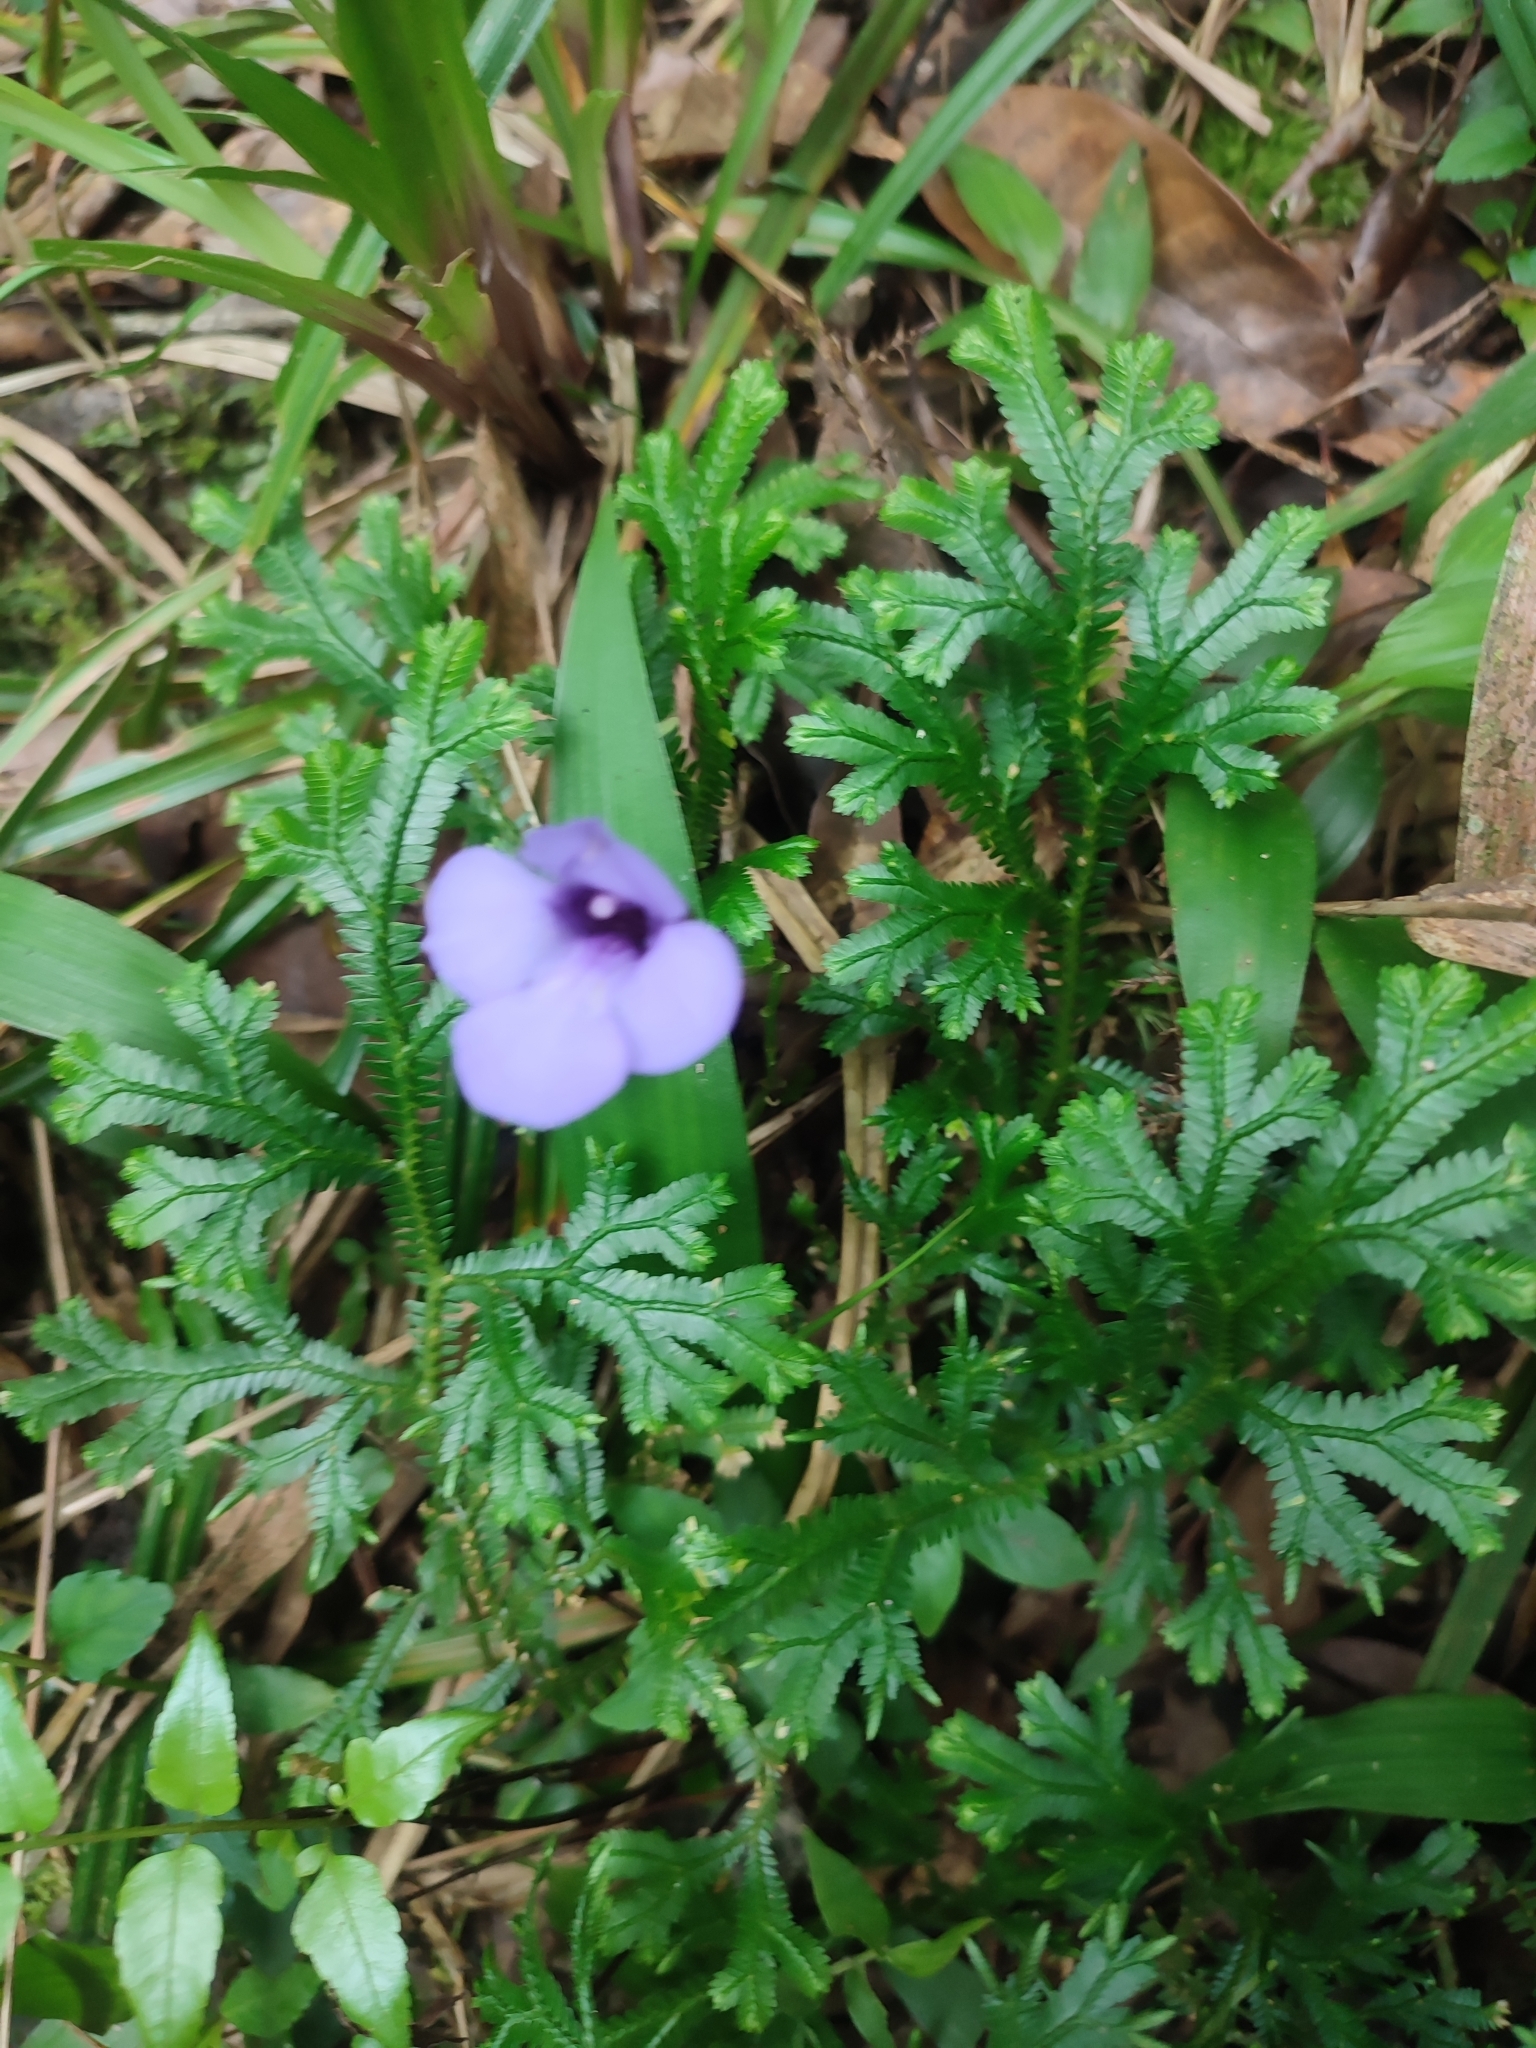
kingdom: Plantae
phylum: Tracheophyta
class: Magnoliopsida
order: Lamiales
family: Linderniaceae
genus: Torenia
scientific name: Torenia concolor
